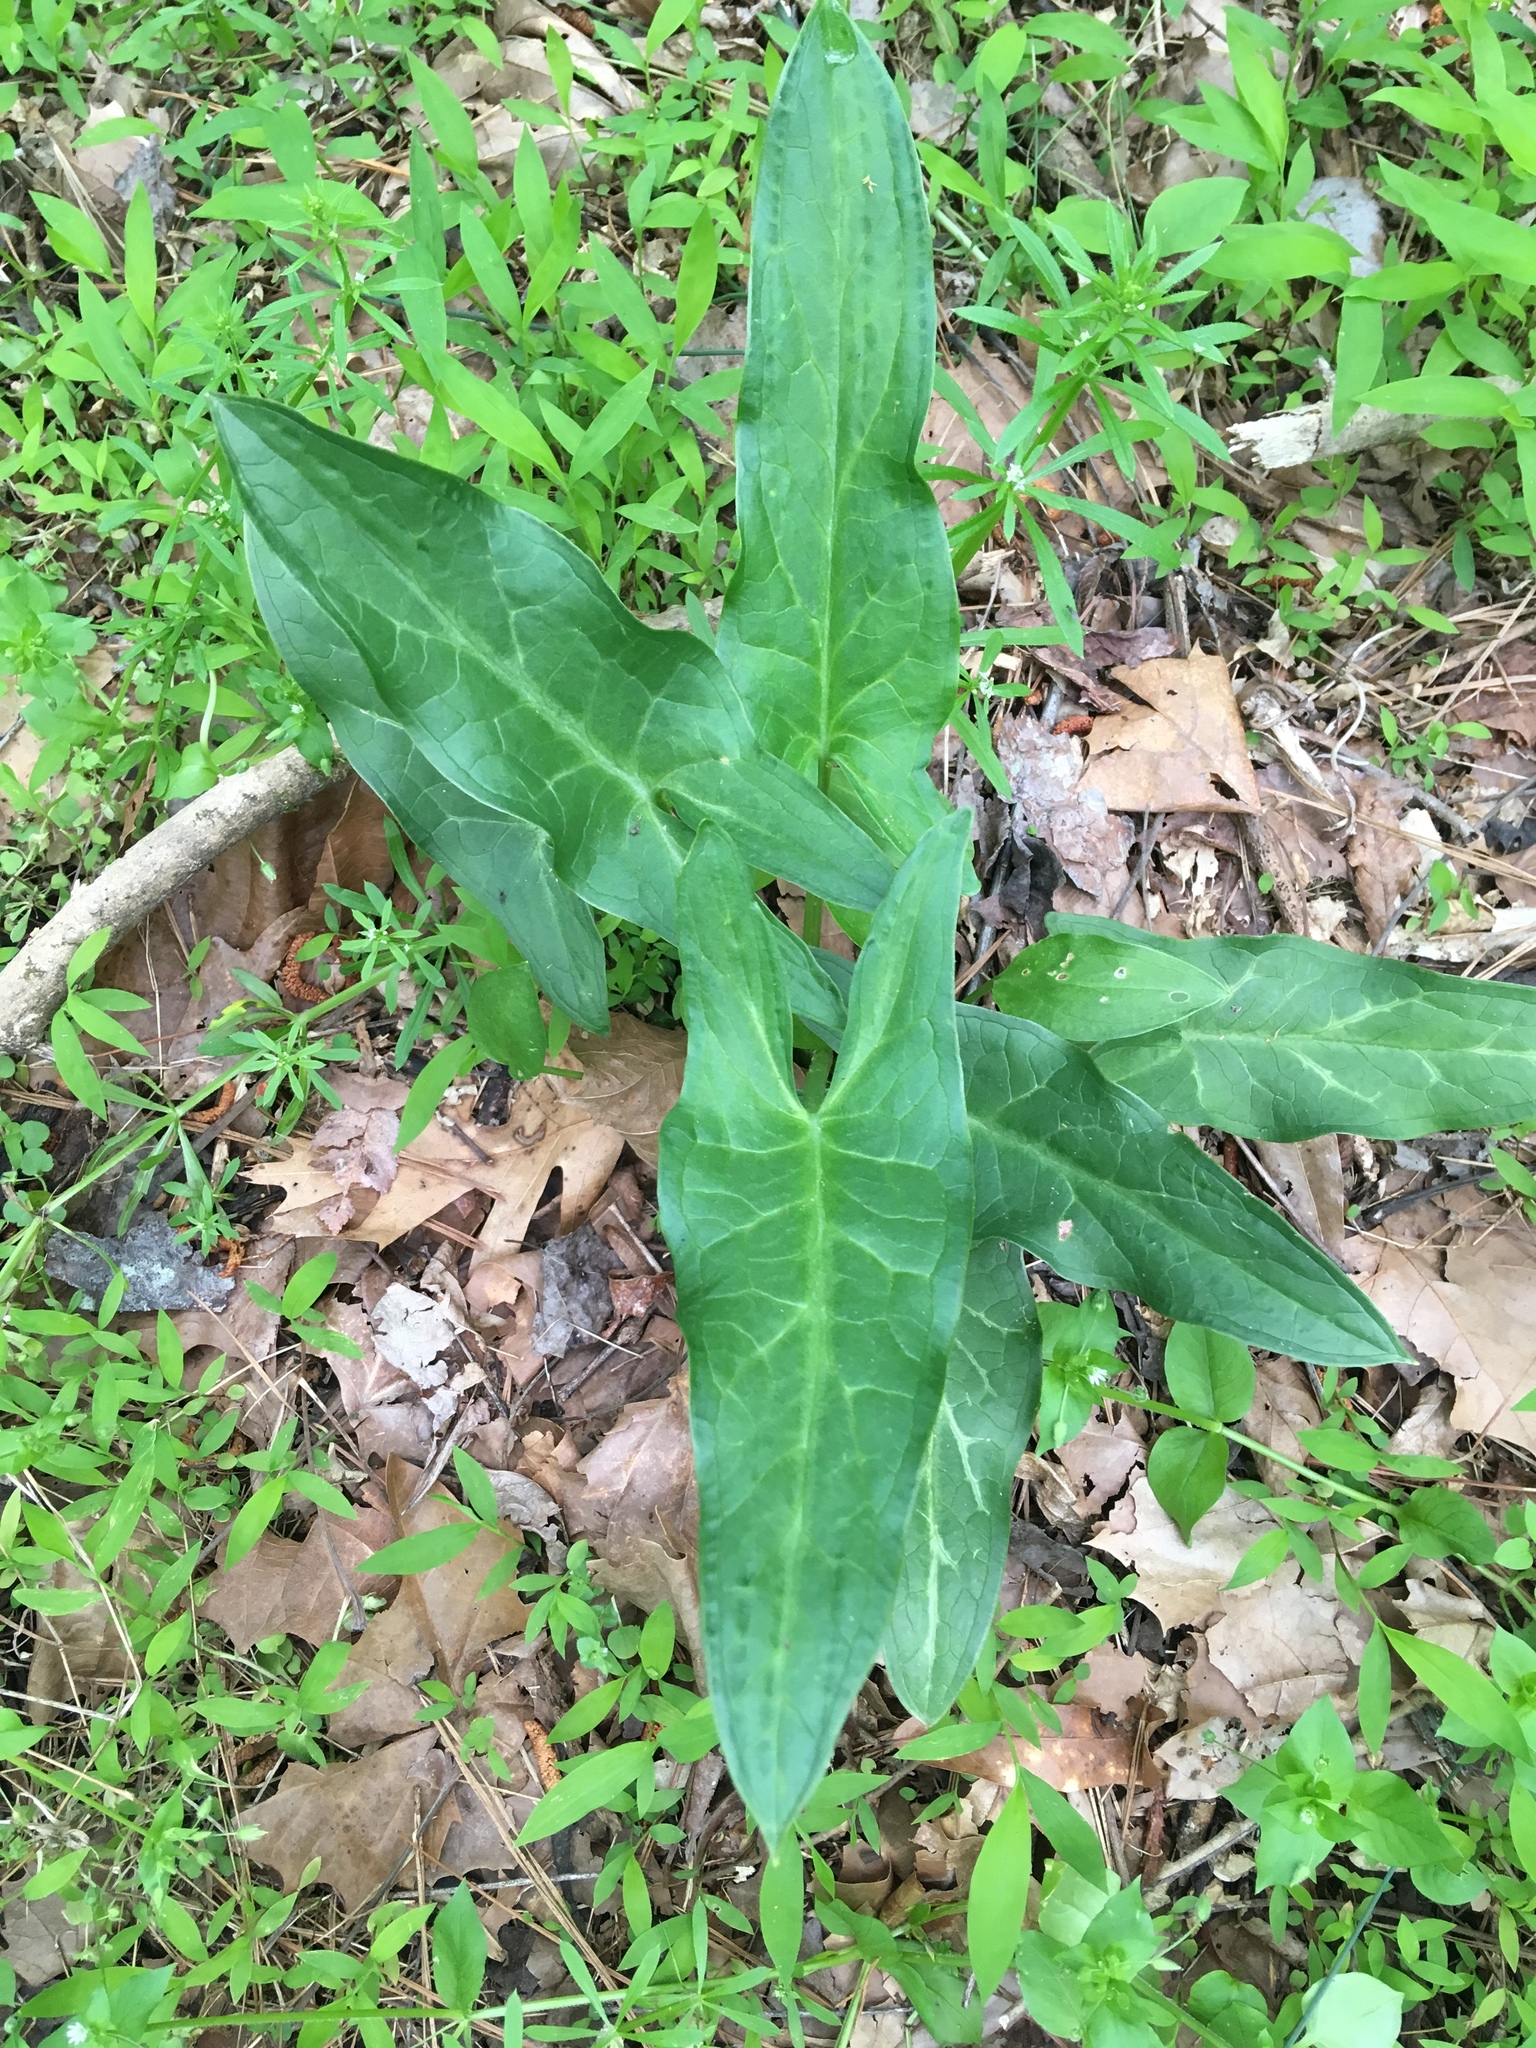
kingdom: Plantae
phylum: Tracheophyta
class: Liliopsida
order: Alismatales
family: Araceae
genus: Arum
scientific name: Arum italicum
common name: Italian lords-and-ladies
